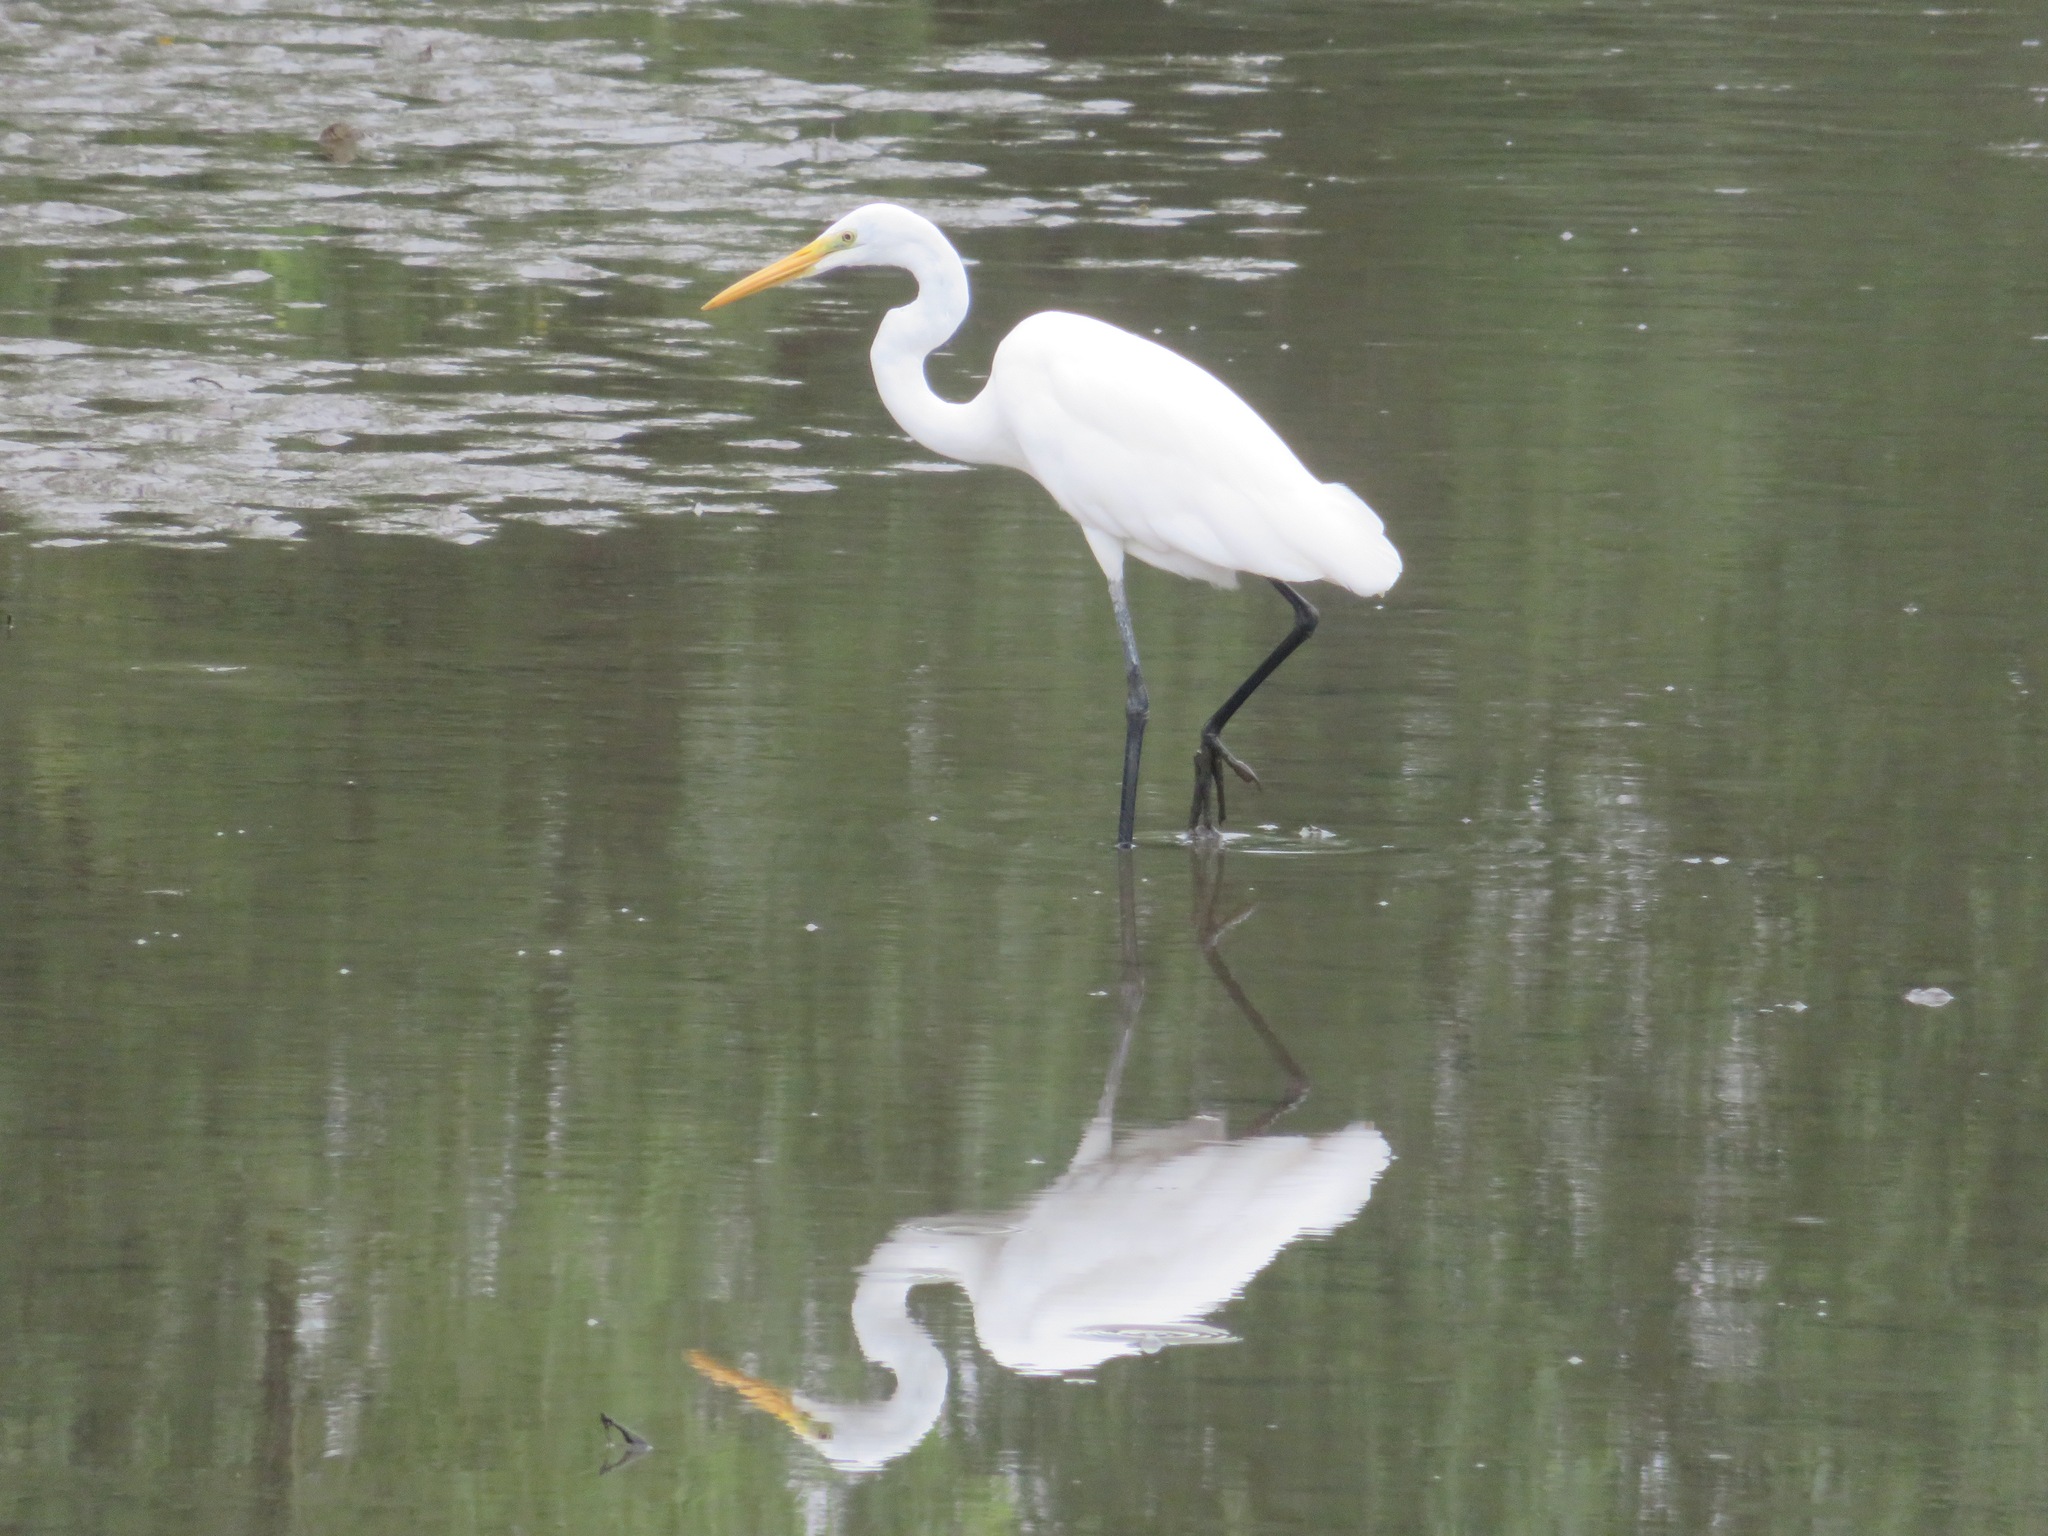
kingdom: Animalia
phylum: Chordata
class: Aves
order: Pelecaniformes
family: Ardeidae
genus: Ardea
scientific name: Ardea alba
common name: Great egret
